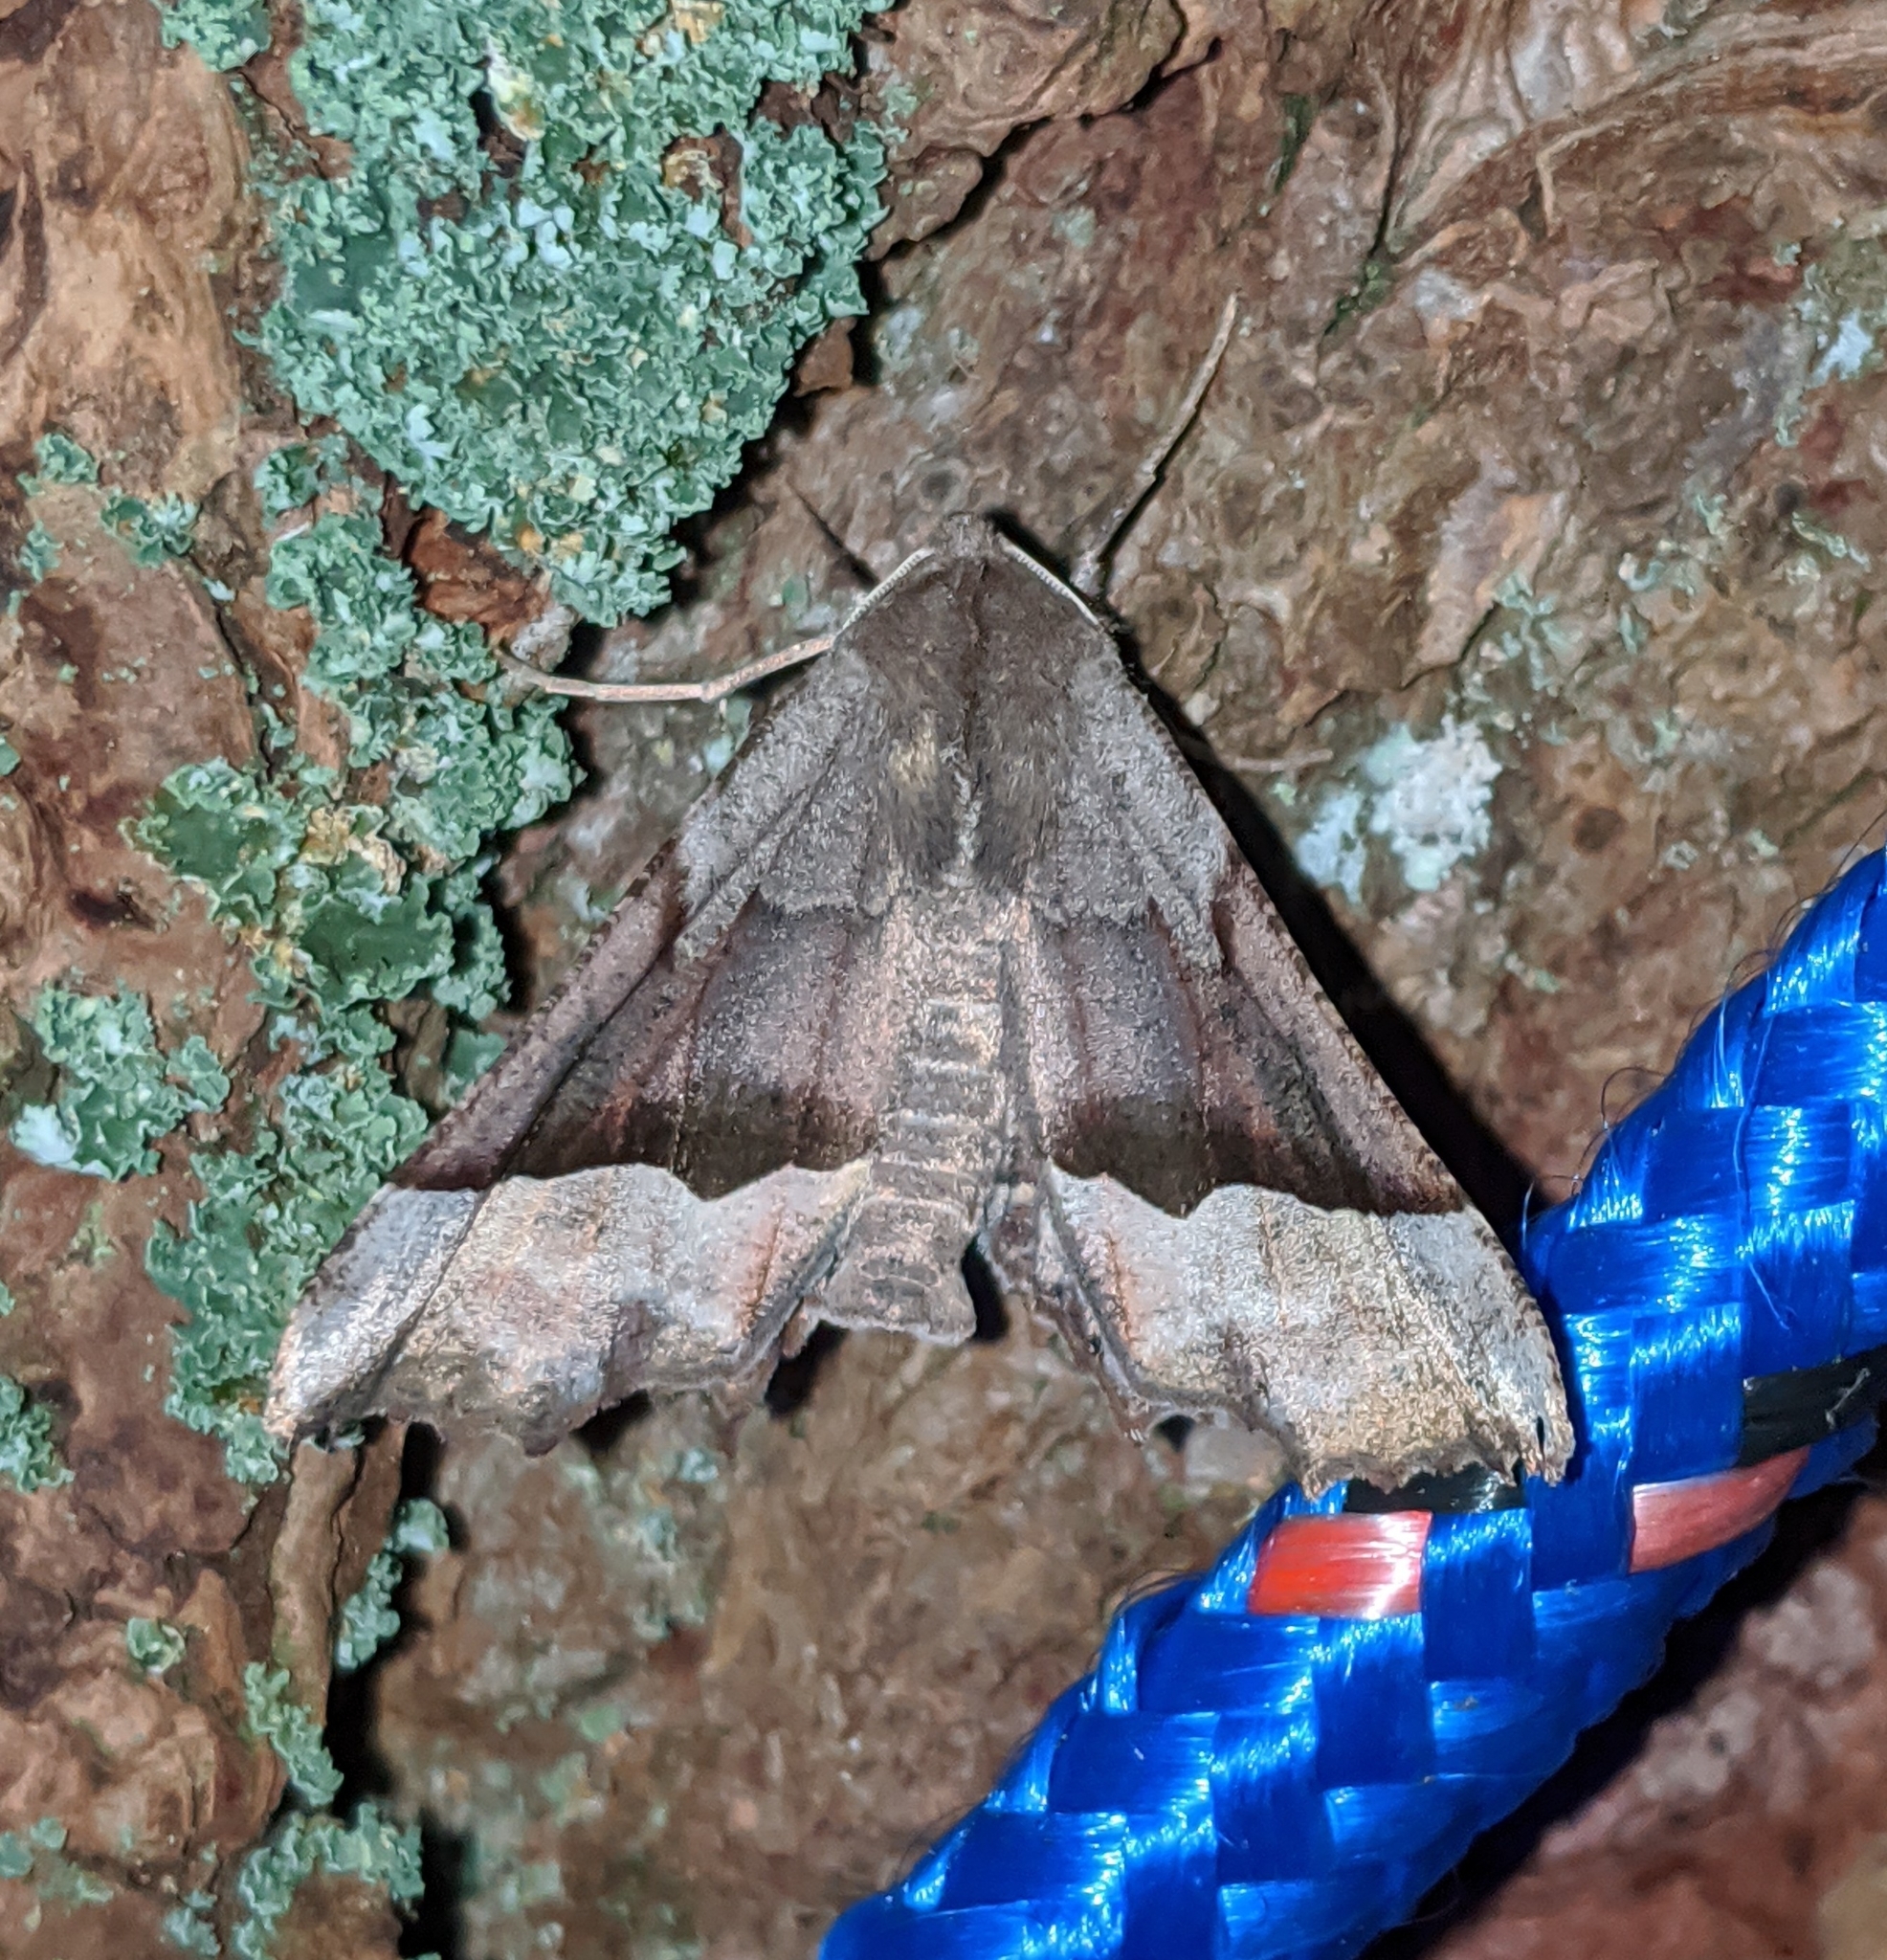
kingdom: Animalia
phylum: Arthropoda
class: Insecta
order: Lepidoptera
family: Geometridae
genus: Pero
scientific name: Pero mizon
